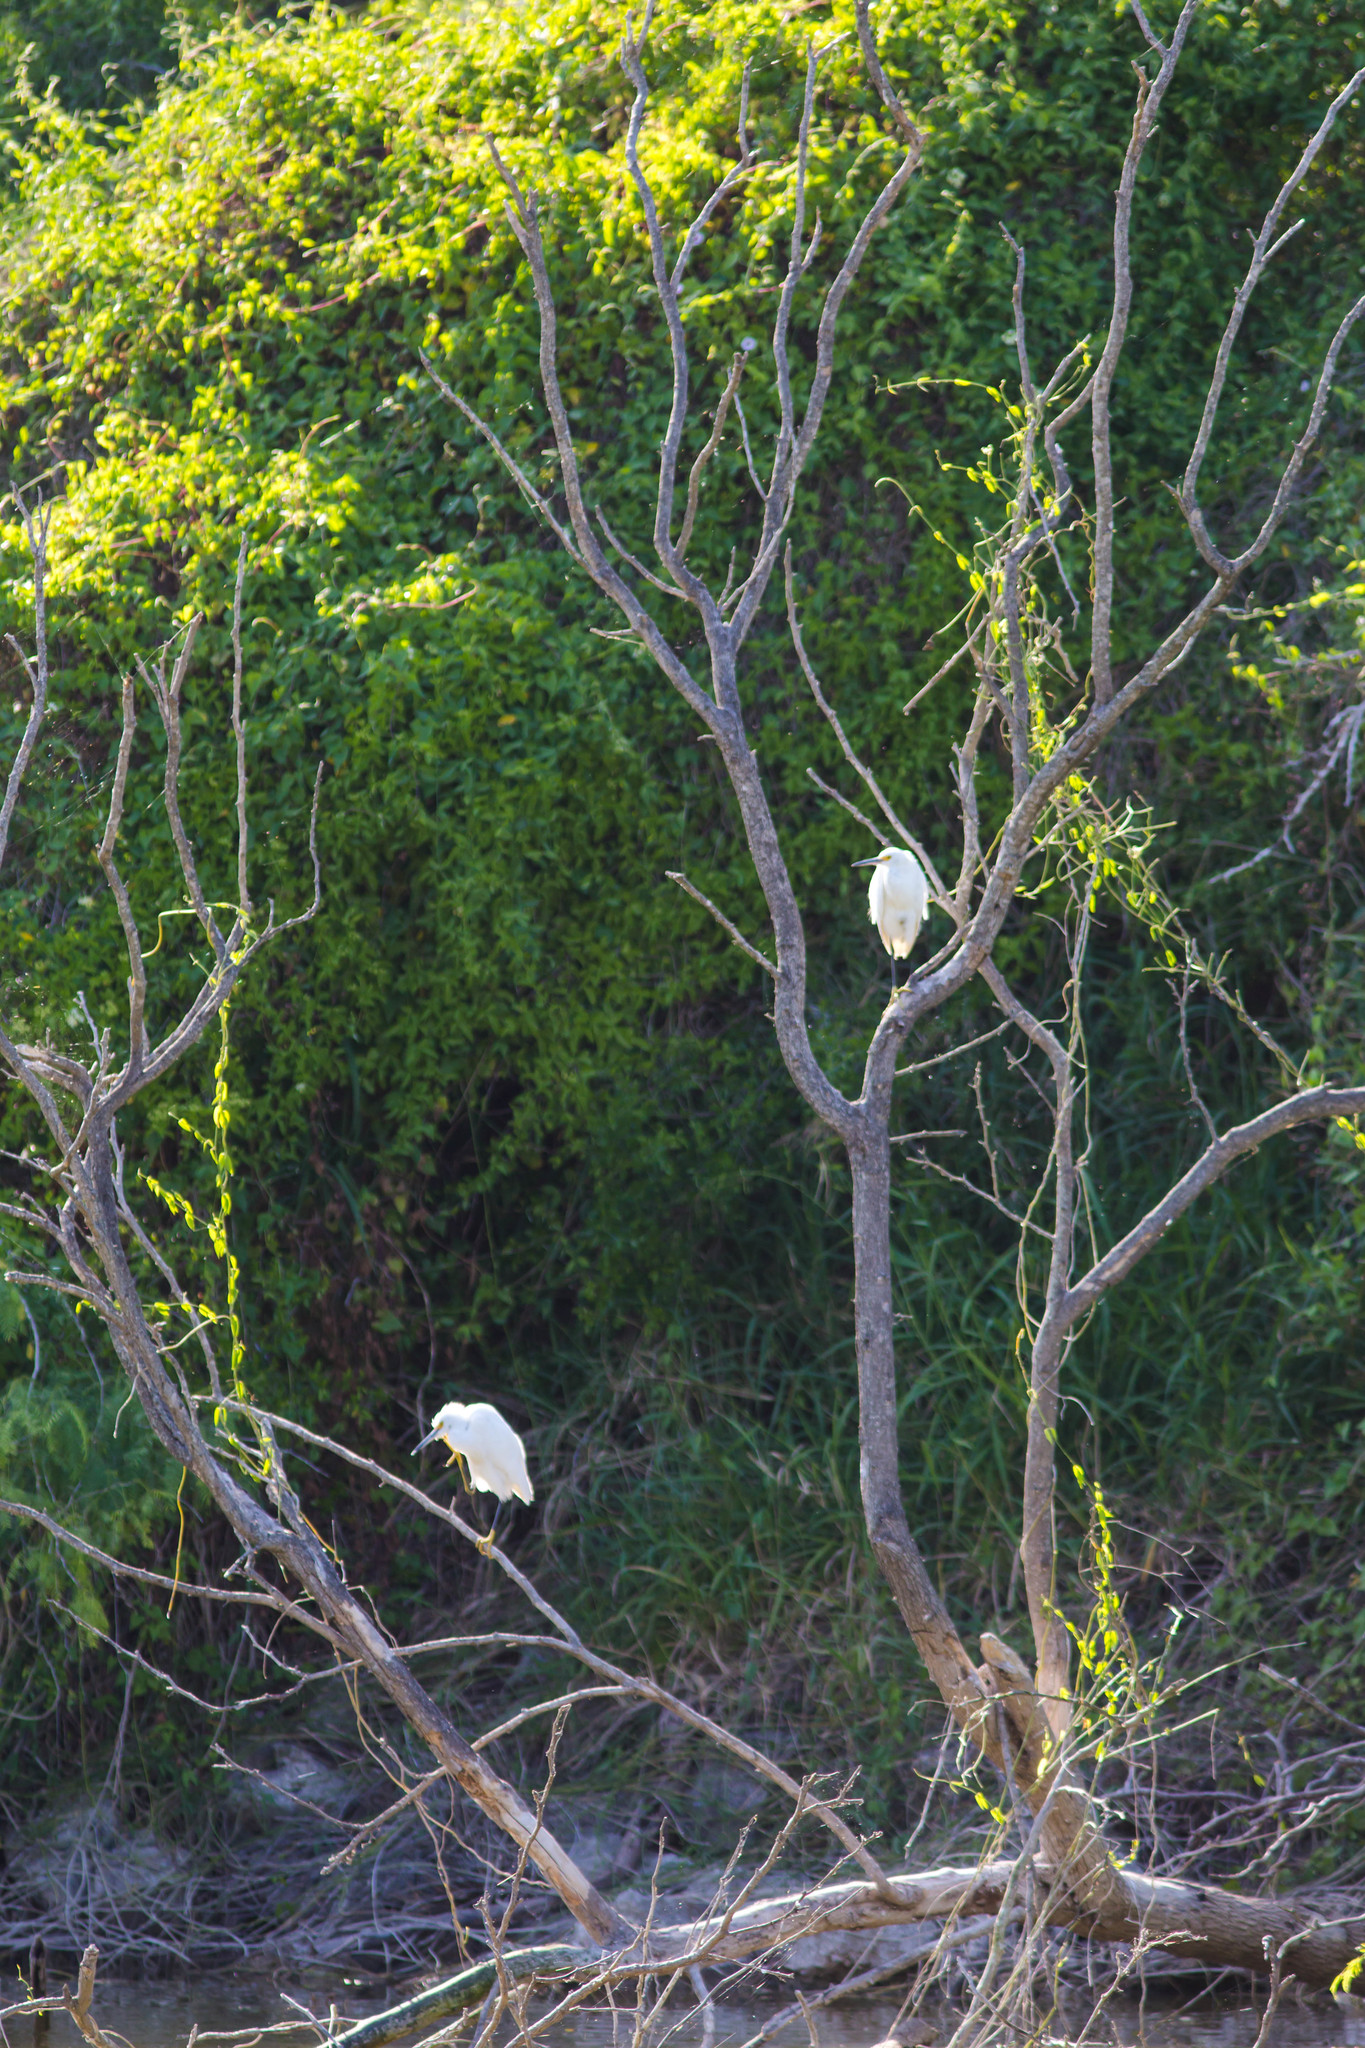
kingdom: Animalia
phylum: Chordata
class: Aves
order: Pelecaniformes
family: Ardeidae
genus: Egretta
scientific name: Egretta thula
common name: Snowy egret
